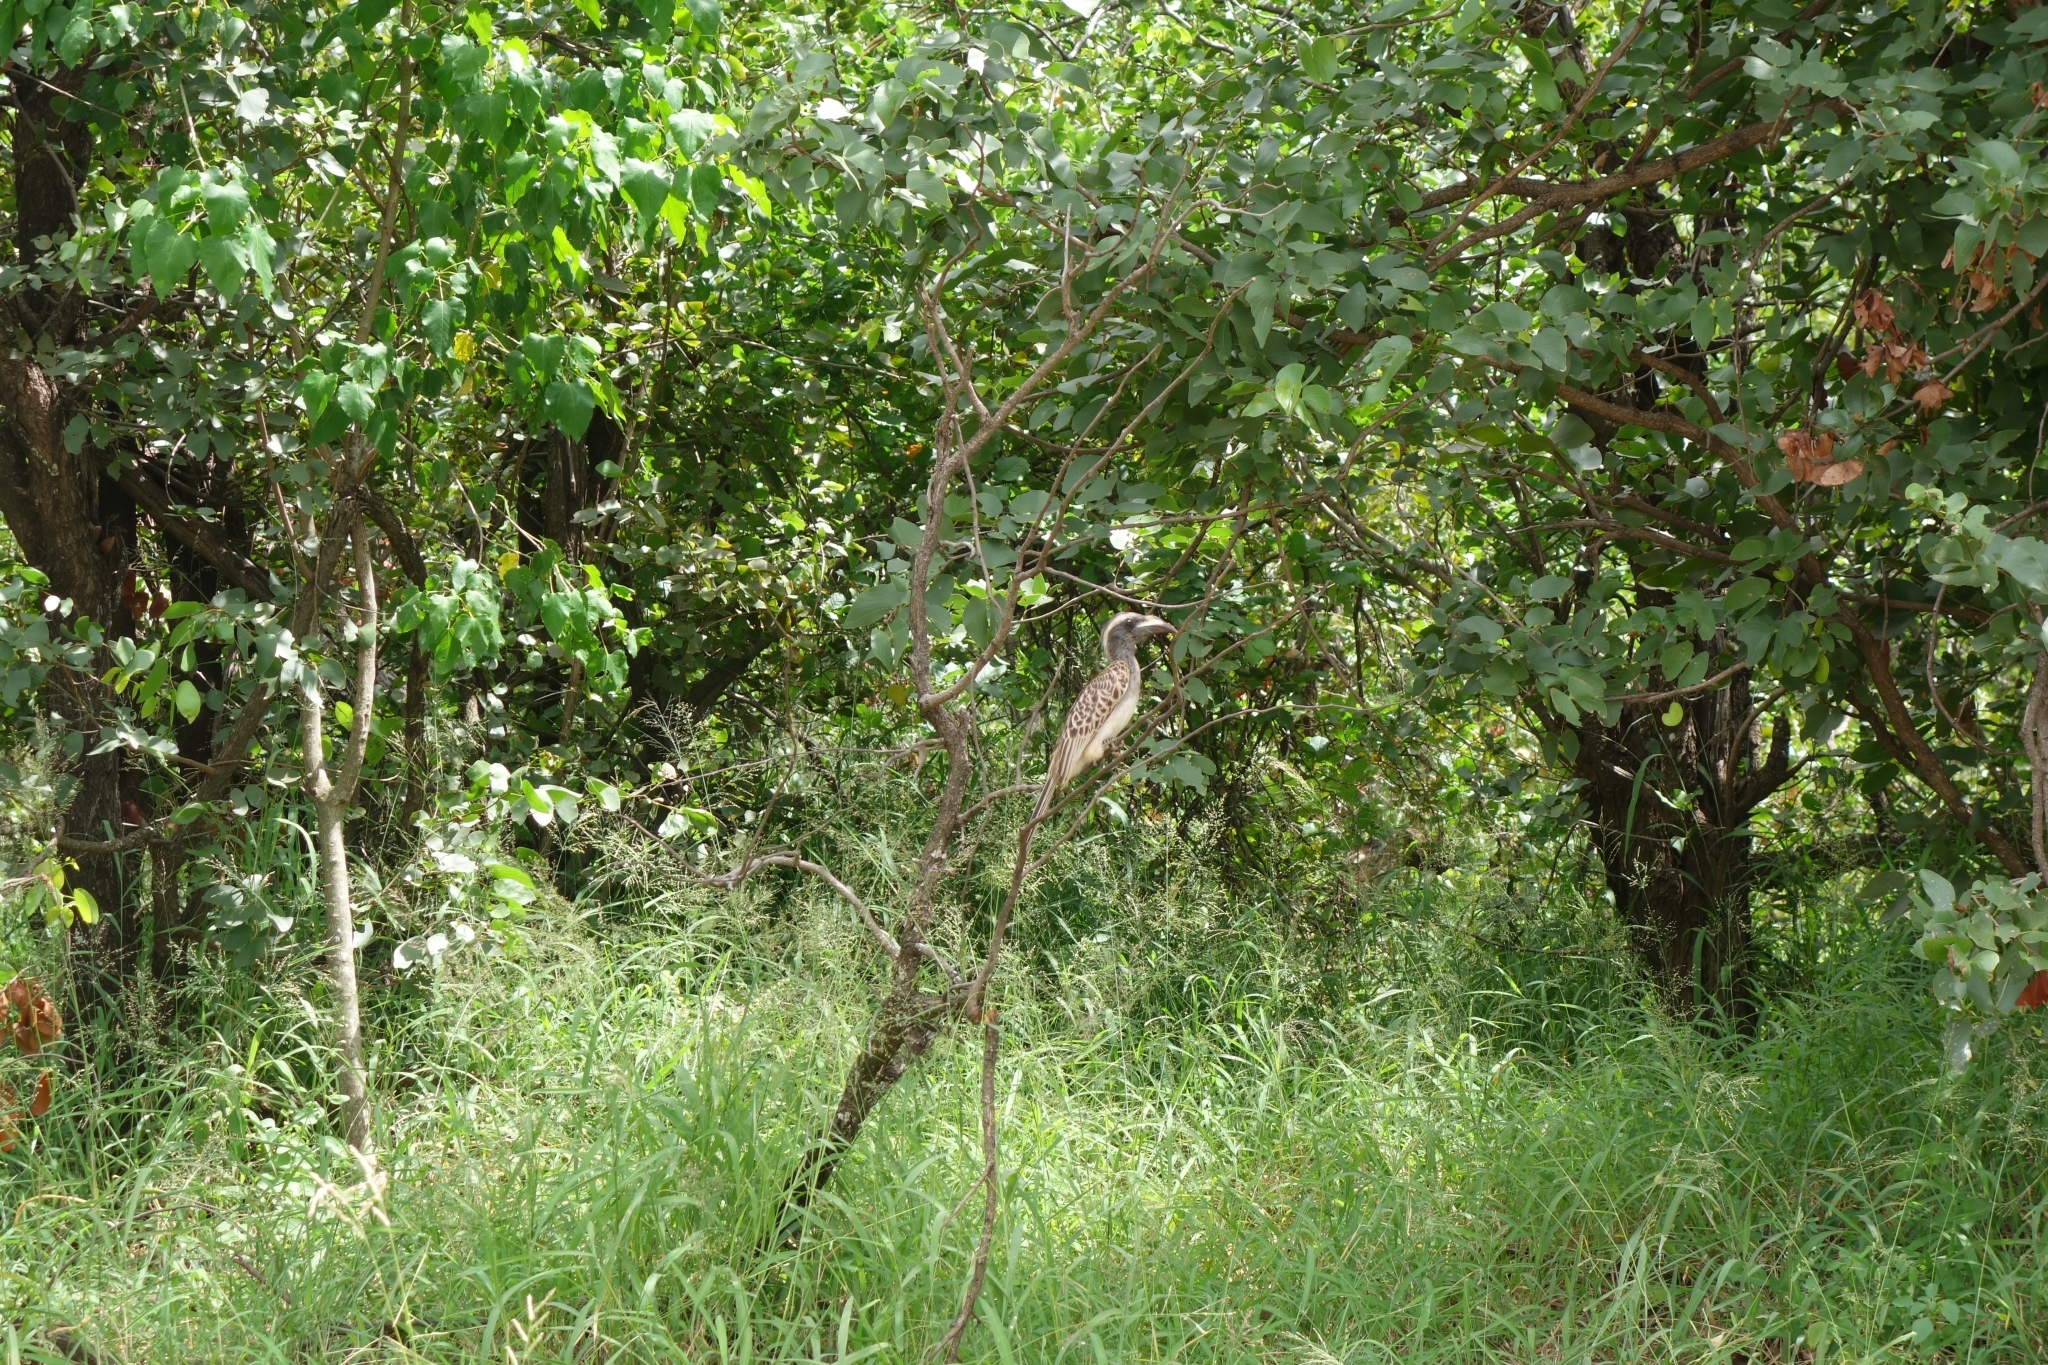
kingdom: Animalia
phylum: Chordata
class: Aves
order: Bucerotiformes
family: Bucerotidae
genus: Lophoceros
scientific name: Lophoceros nasutus
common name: African grey hornbill
